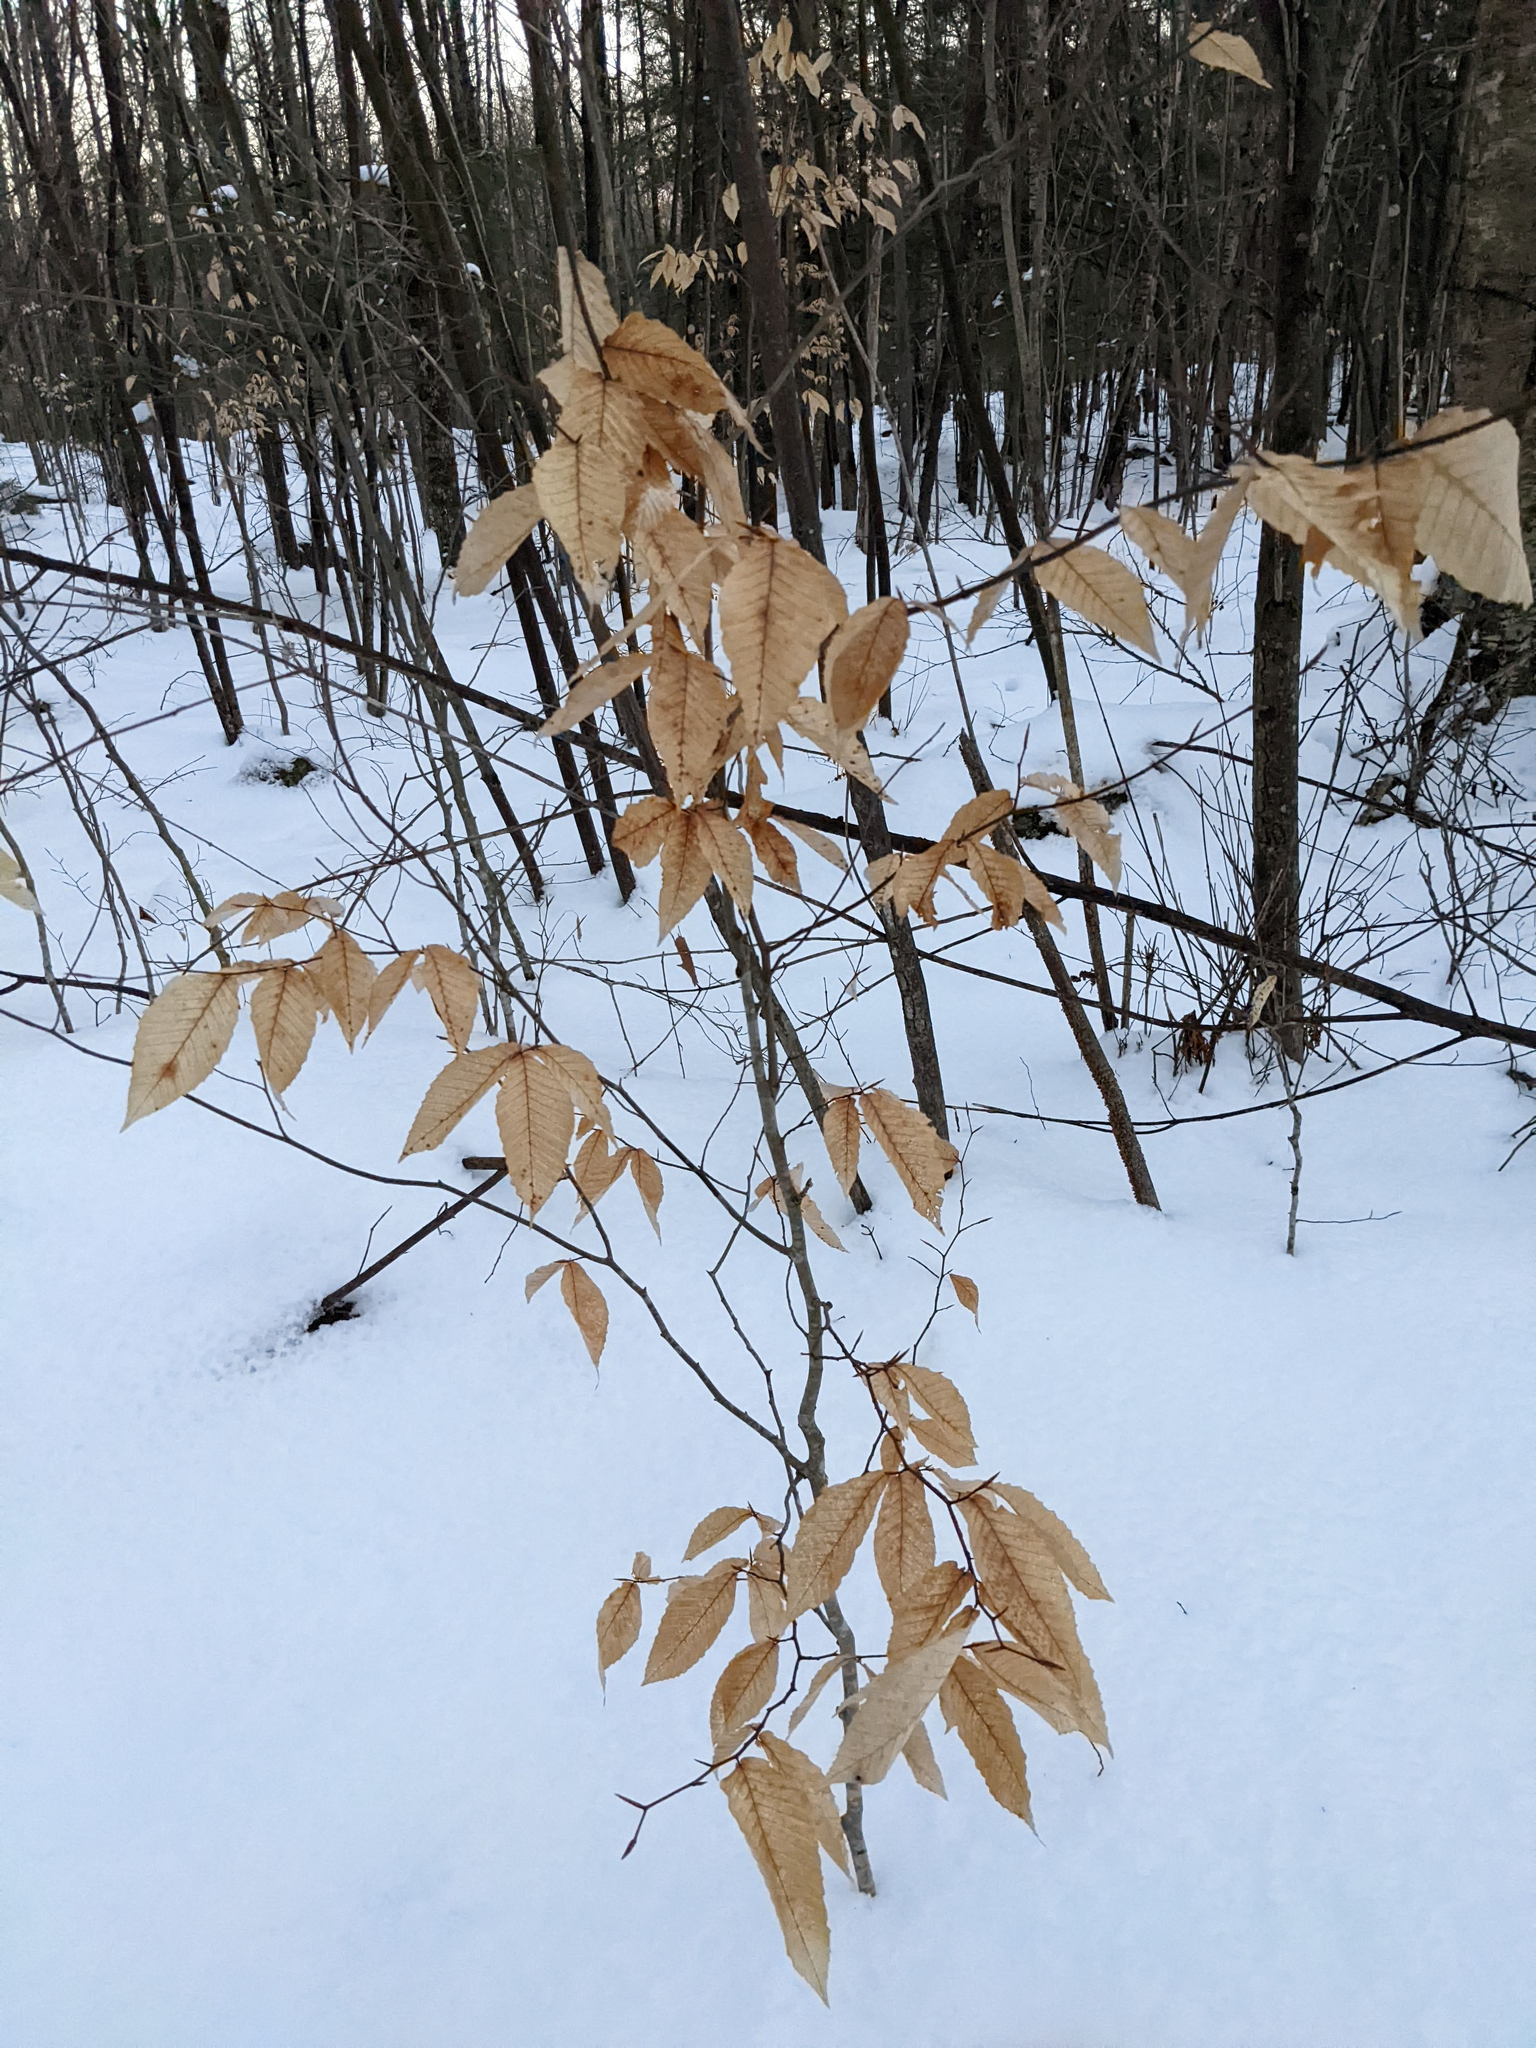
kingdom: Plantae
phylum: Tracheophyta
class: Magnoliopsida
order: Fagales
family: Fagaceae
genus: Fagus
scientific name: Fagus grandifolia
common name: American beech
